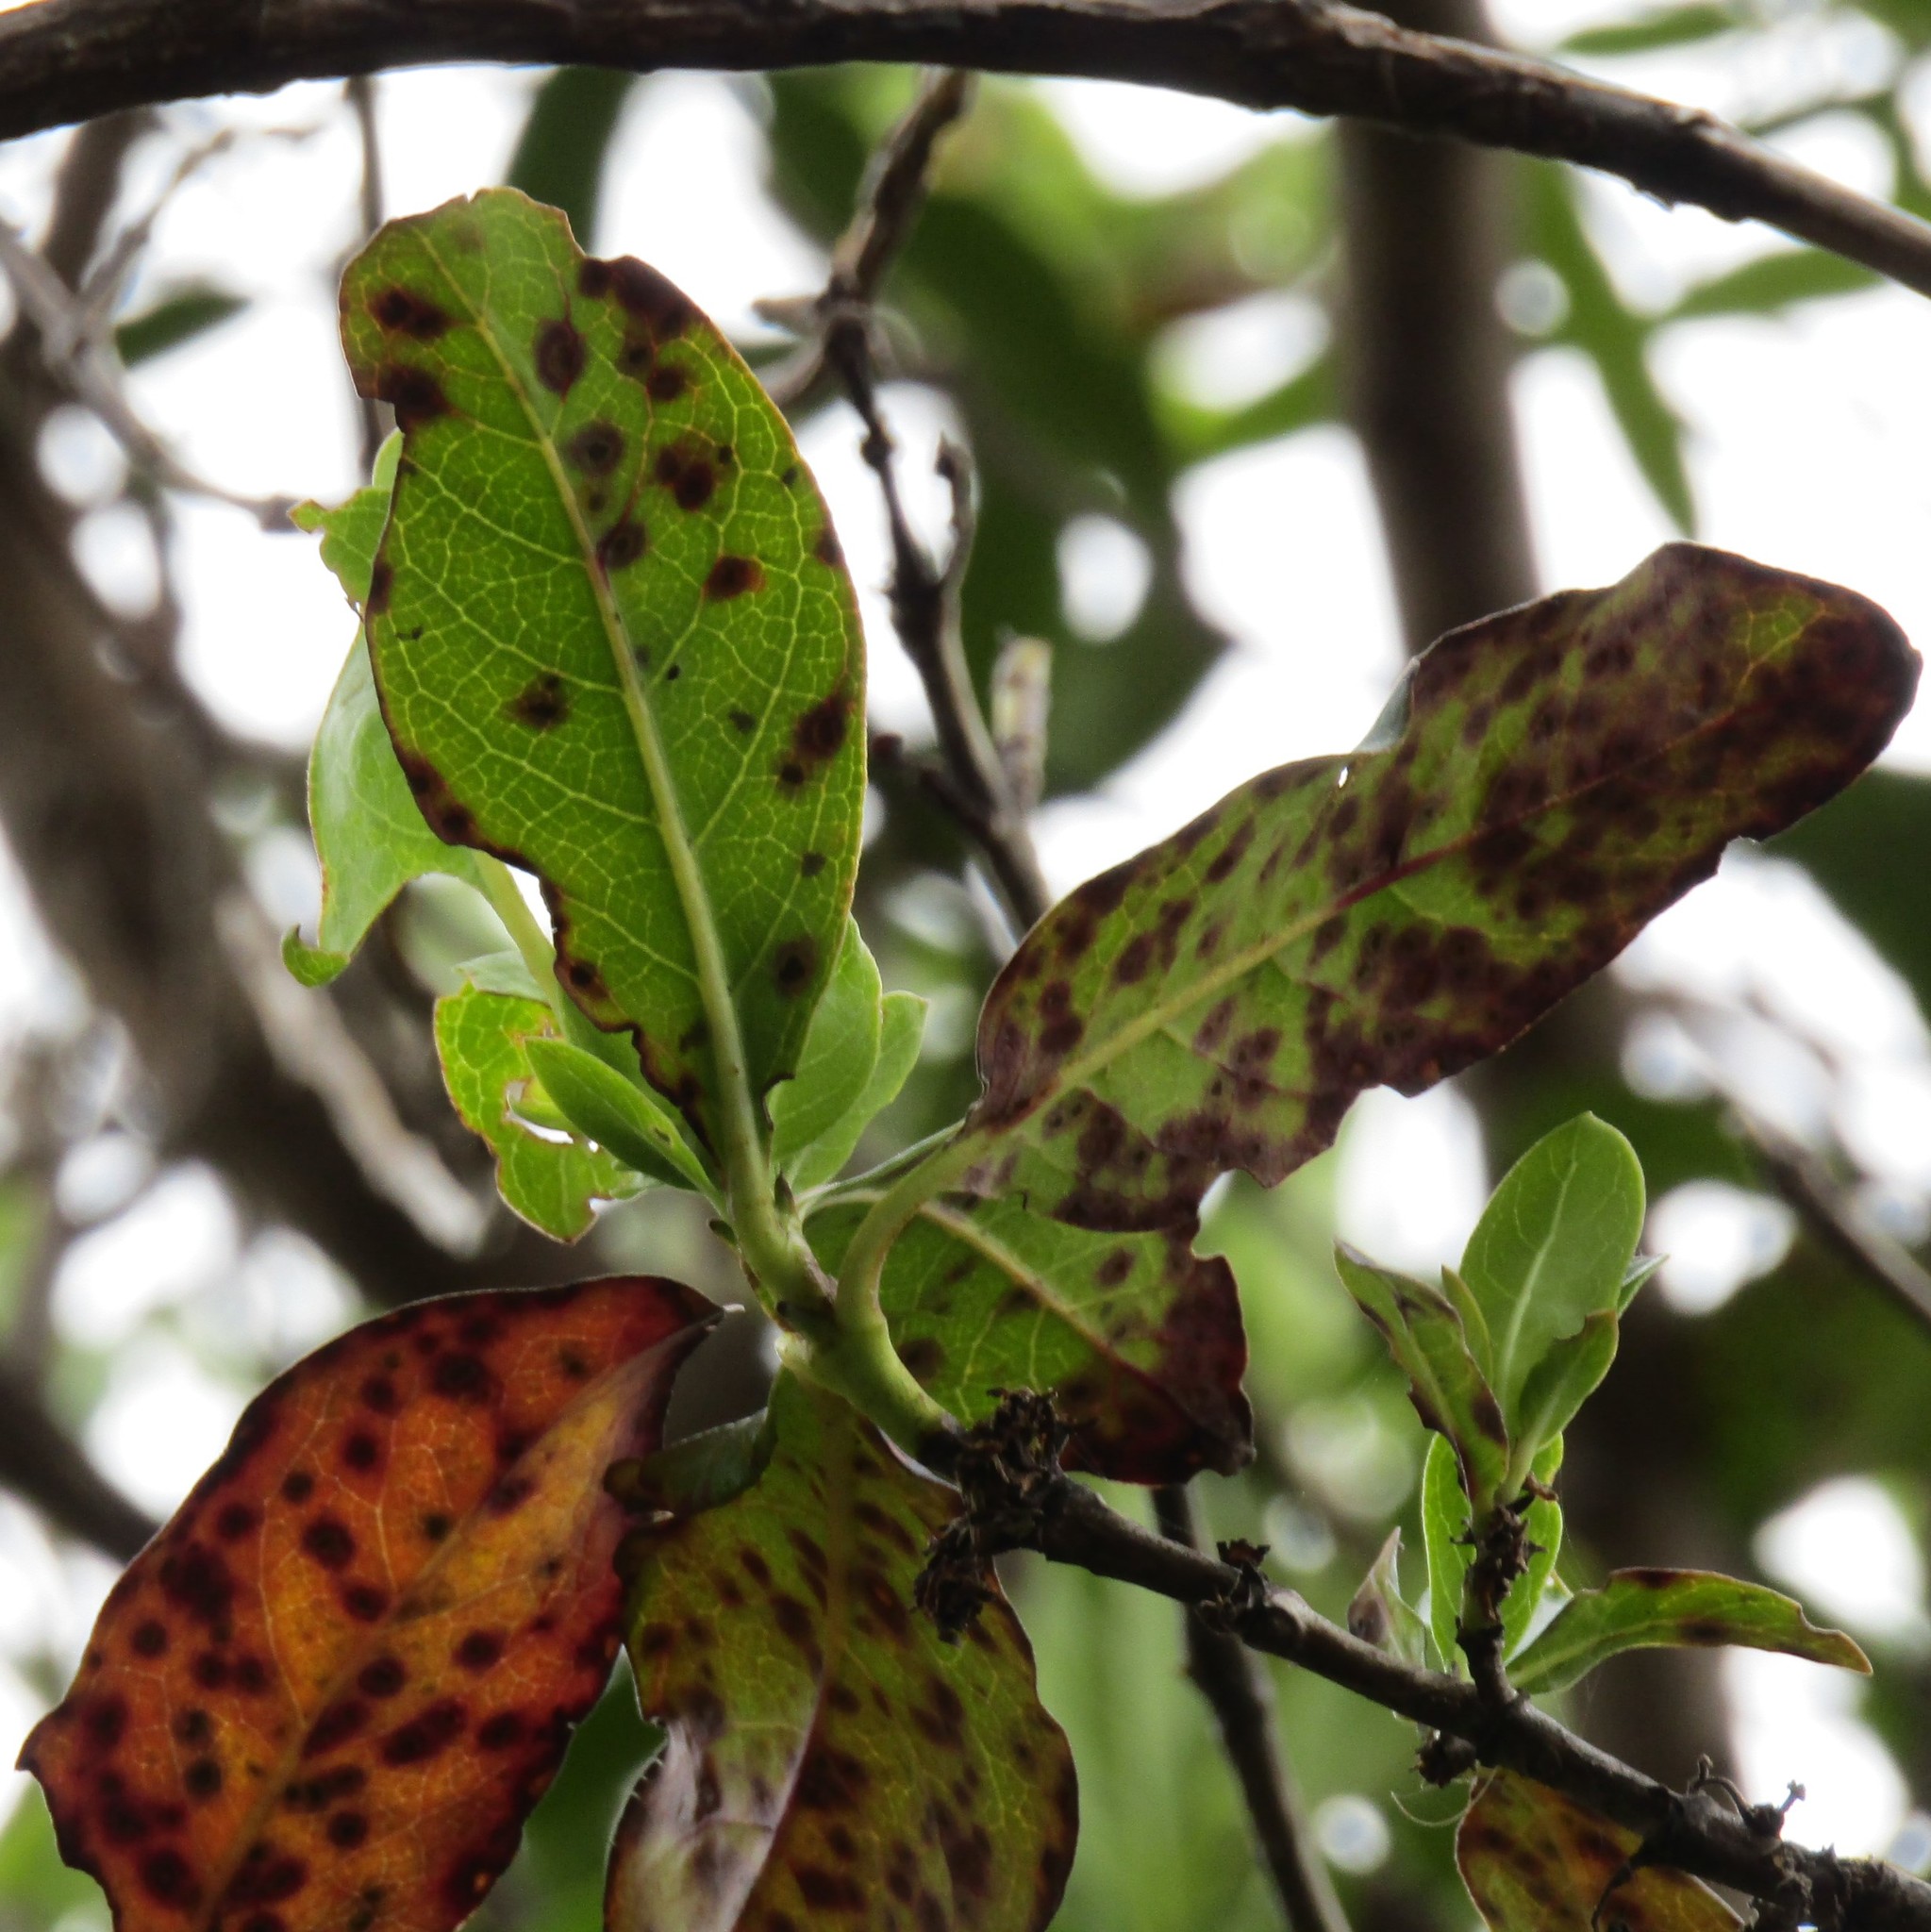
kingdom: Plantae
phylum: Tracheophyta
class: Magnoliopsida
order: Gentianales
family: Rubiaceae
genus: Coprosma
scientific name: Coprosma robusta
